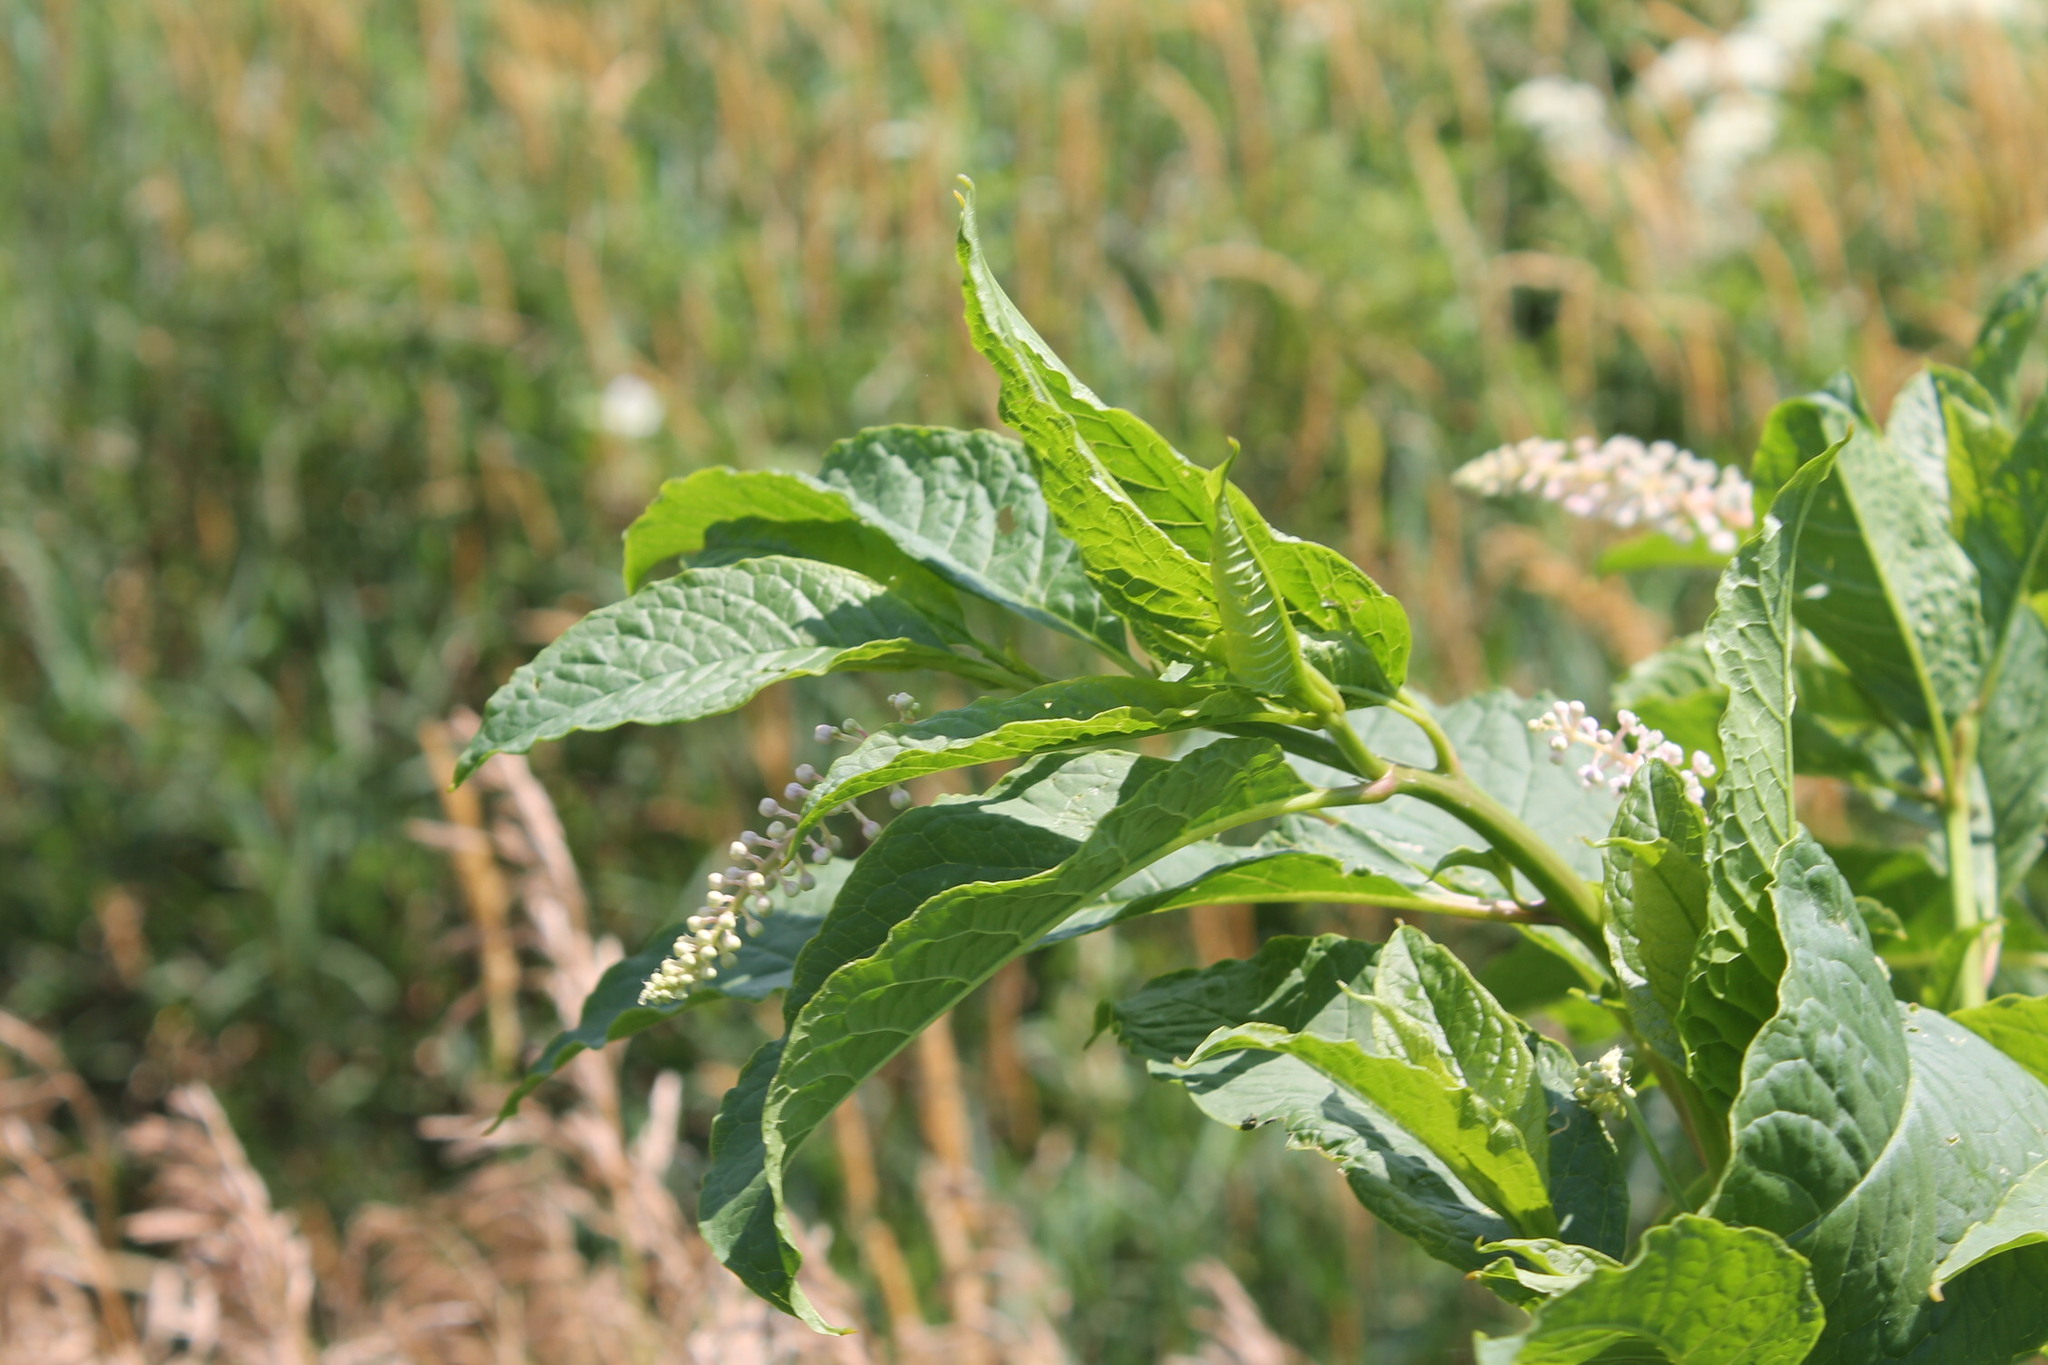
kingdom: Plantae
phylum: Tracheophyta
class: Magnoliopsida
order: Caryophyllales
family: Phytolaccaceae
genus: Phytolacca
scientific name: Phytolacca americana
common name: American pokeweed
